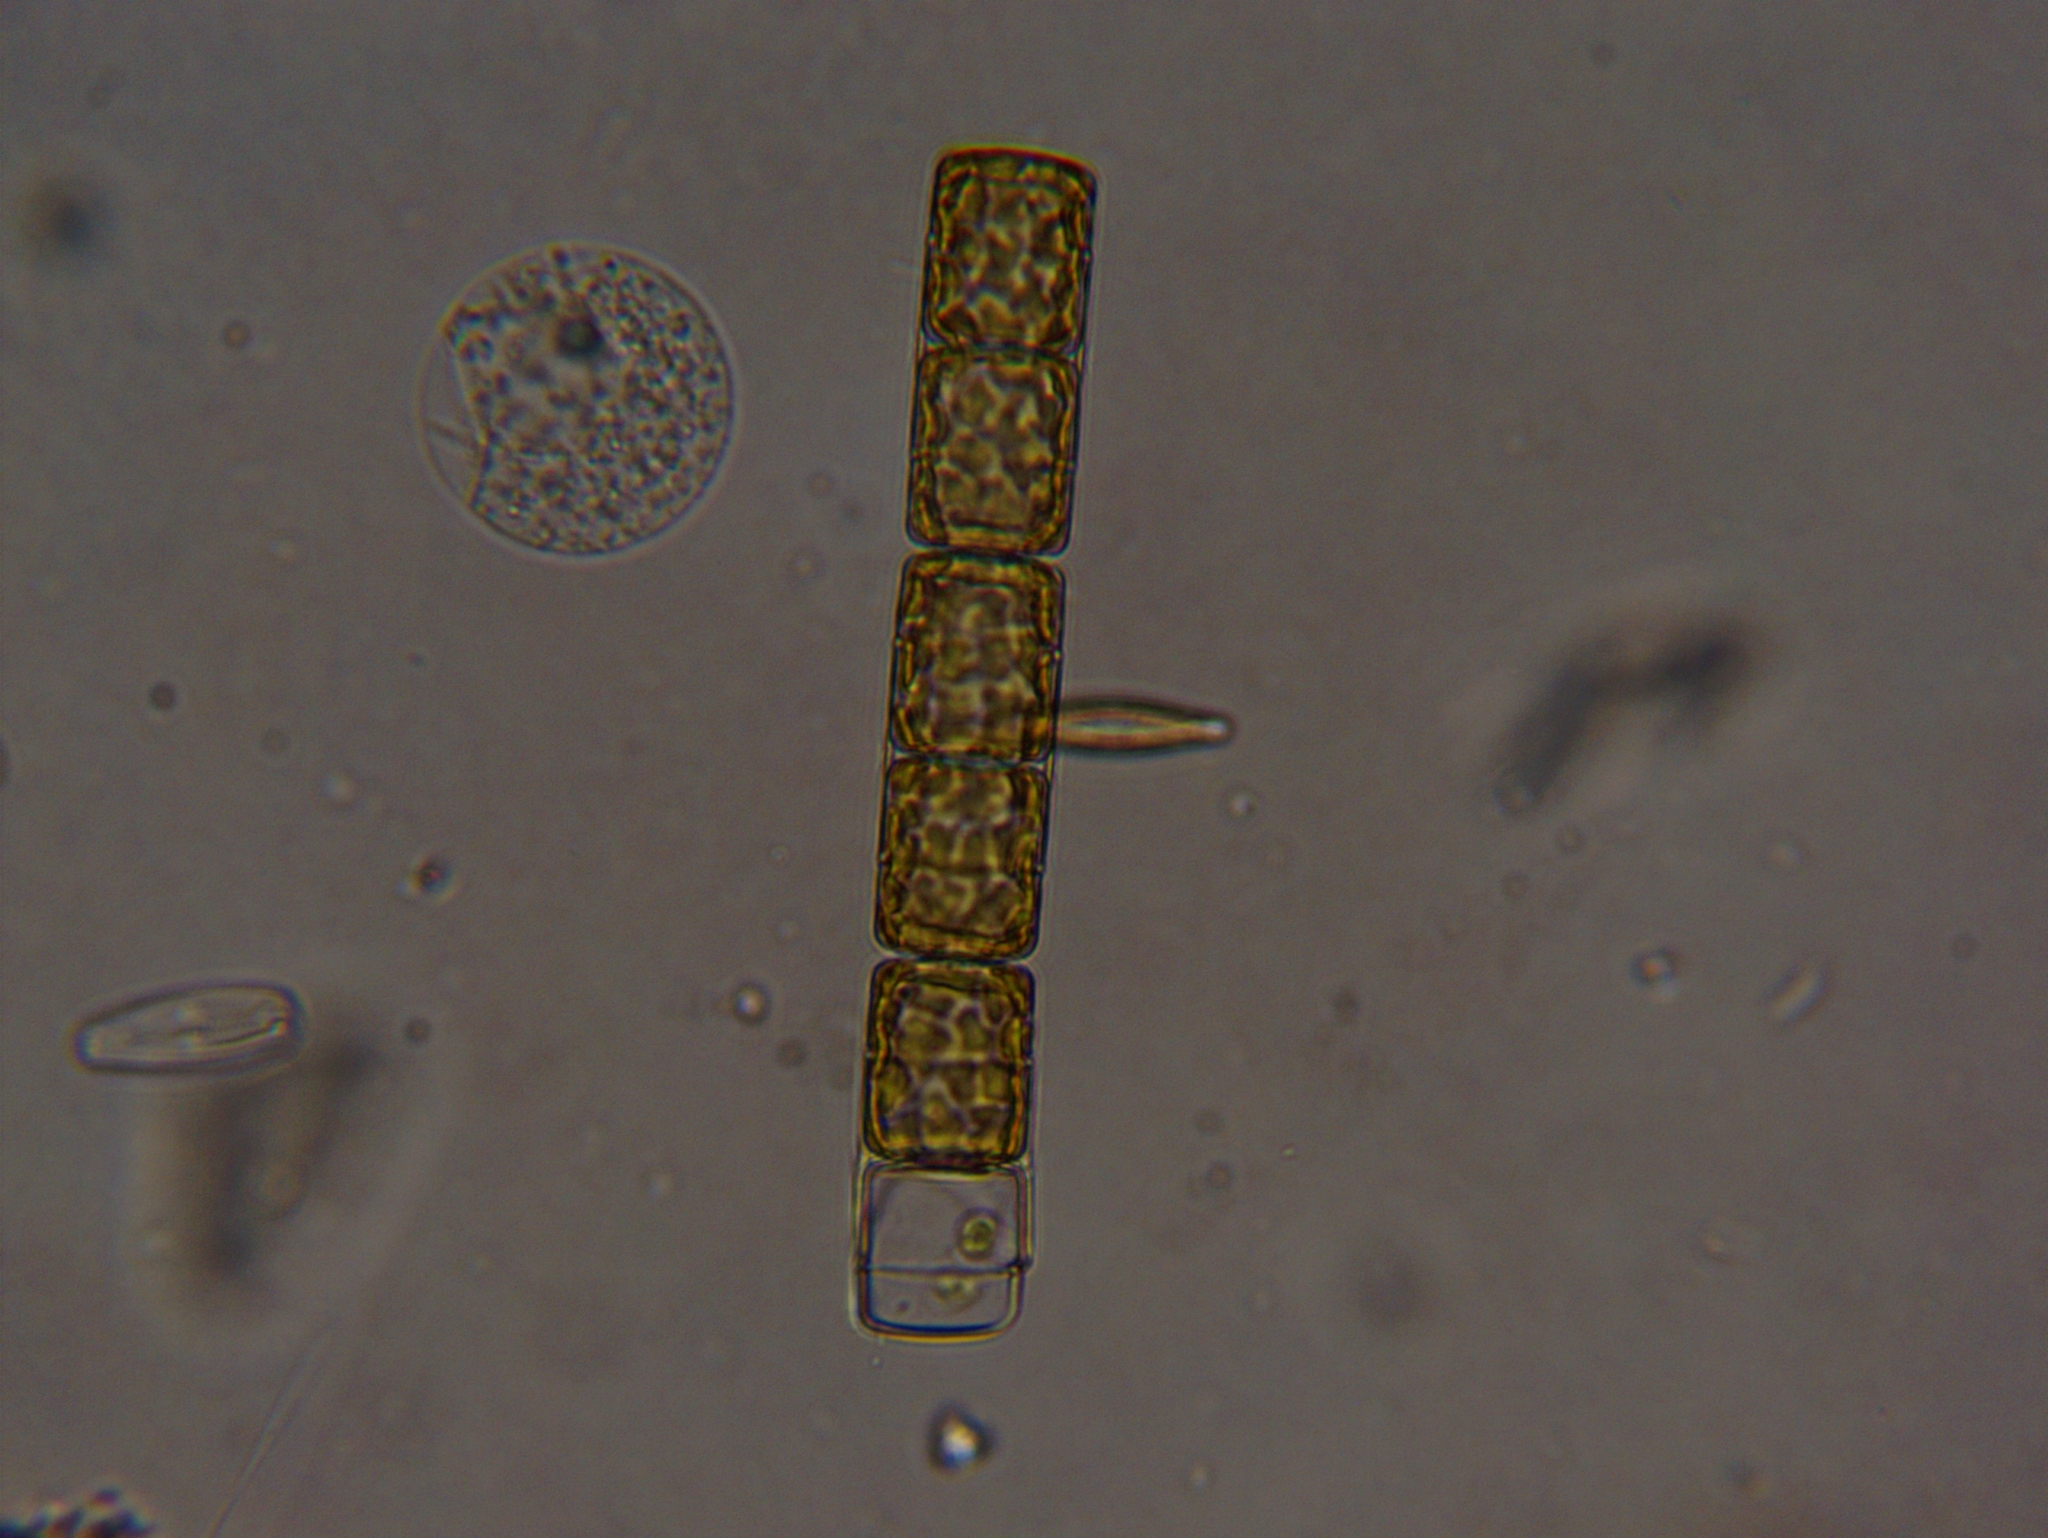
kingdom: Chromista
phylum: Ochrophyta
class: Bacillariophyceae
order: Melosirales
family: Melosiraceae
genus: Melosira
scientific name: Melosira varians
